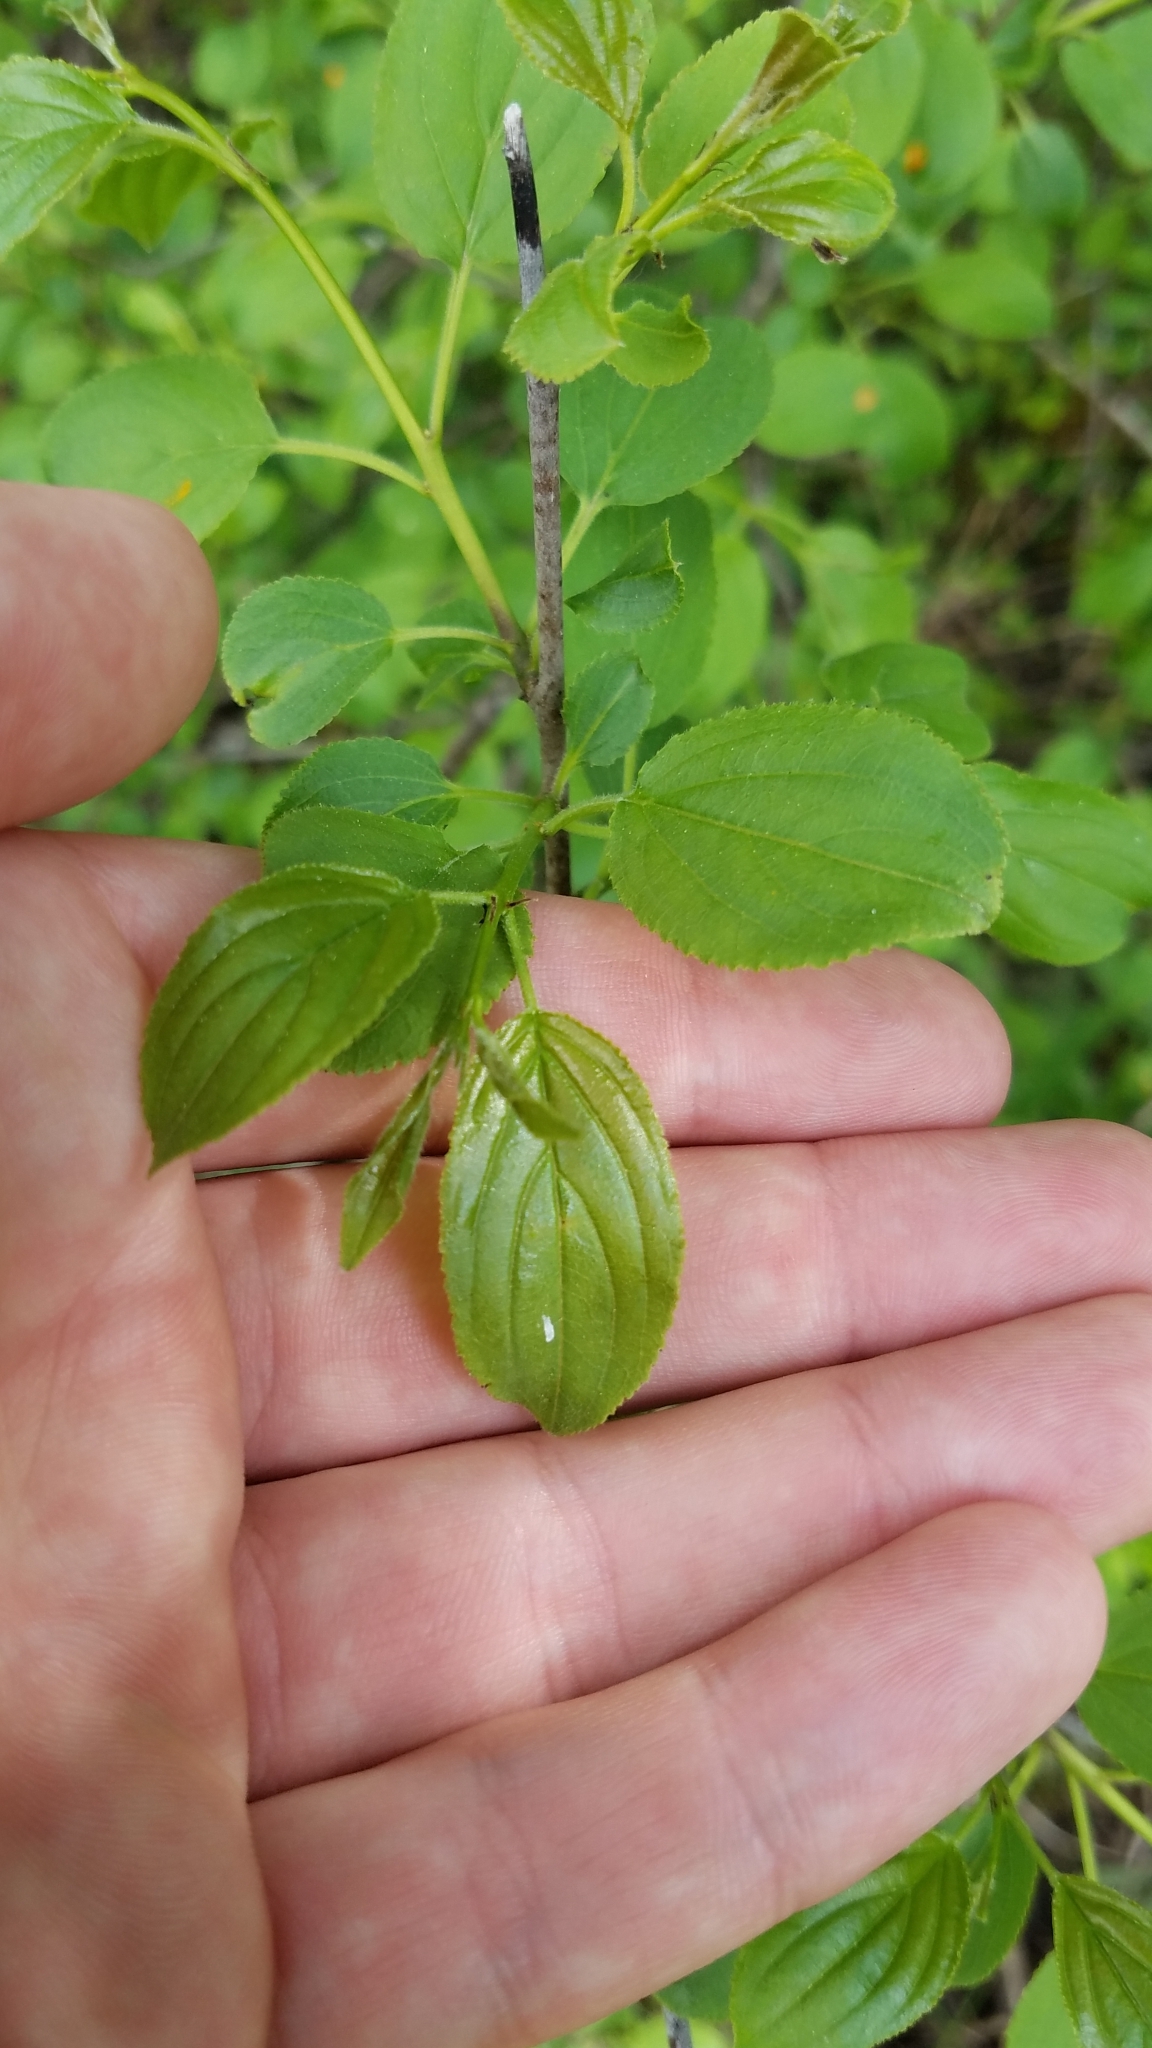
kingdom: Plantae
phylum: Tracheophyta
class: Magnoliopsida
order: Rosales
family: Rhamnaceae
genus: Rhamnus
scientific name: Rhamnus cathartica
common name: Common buckthorn
